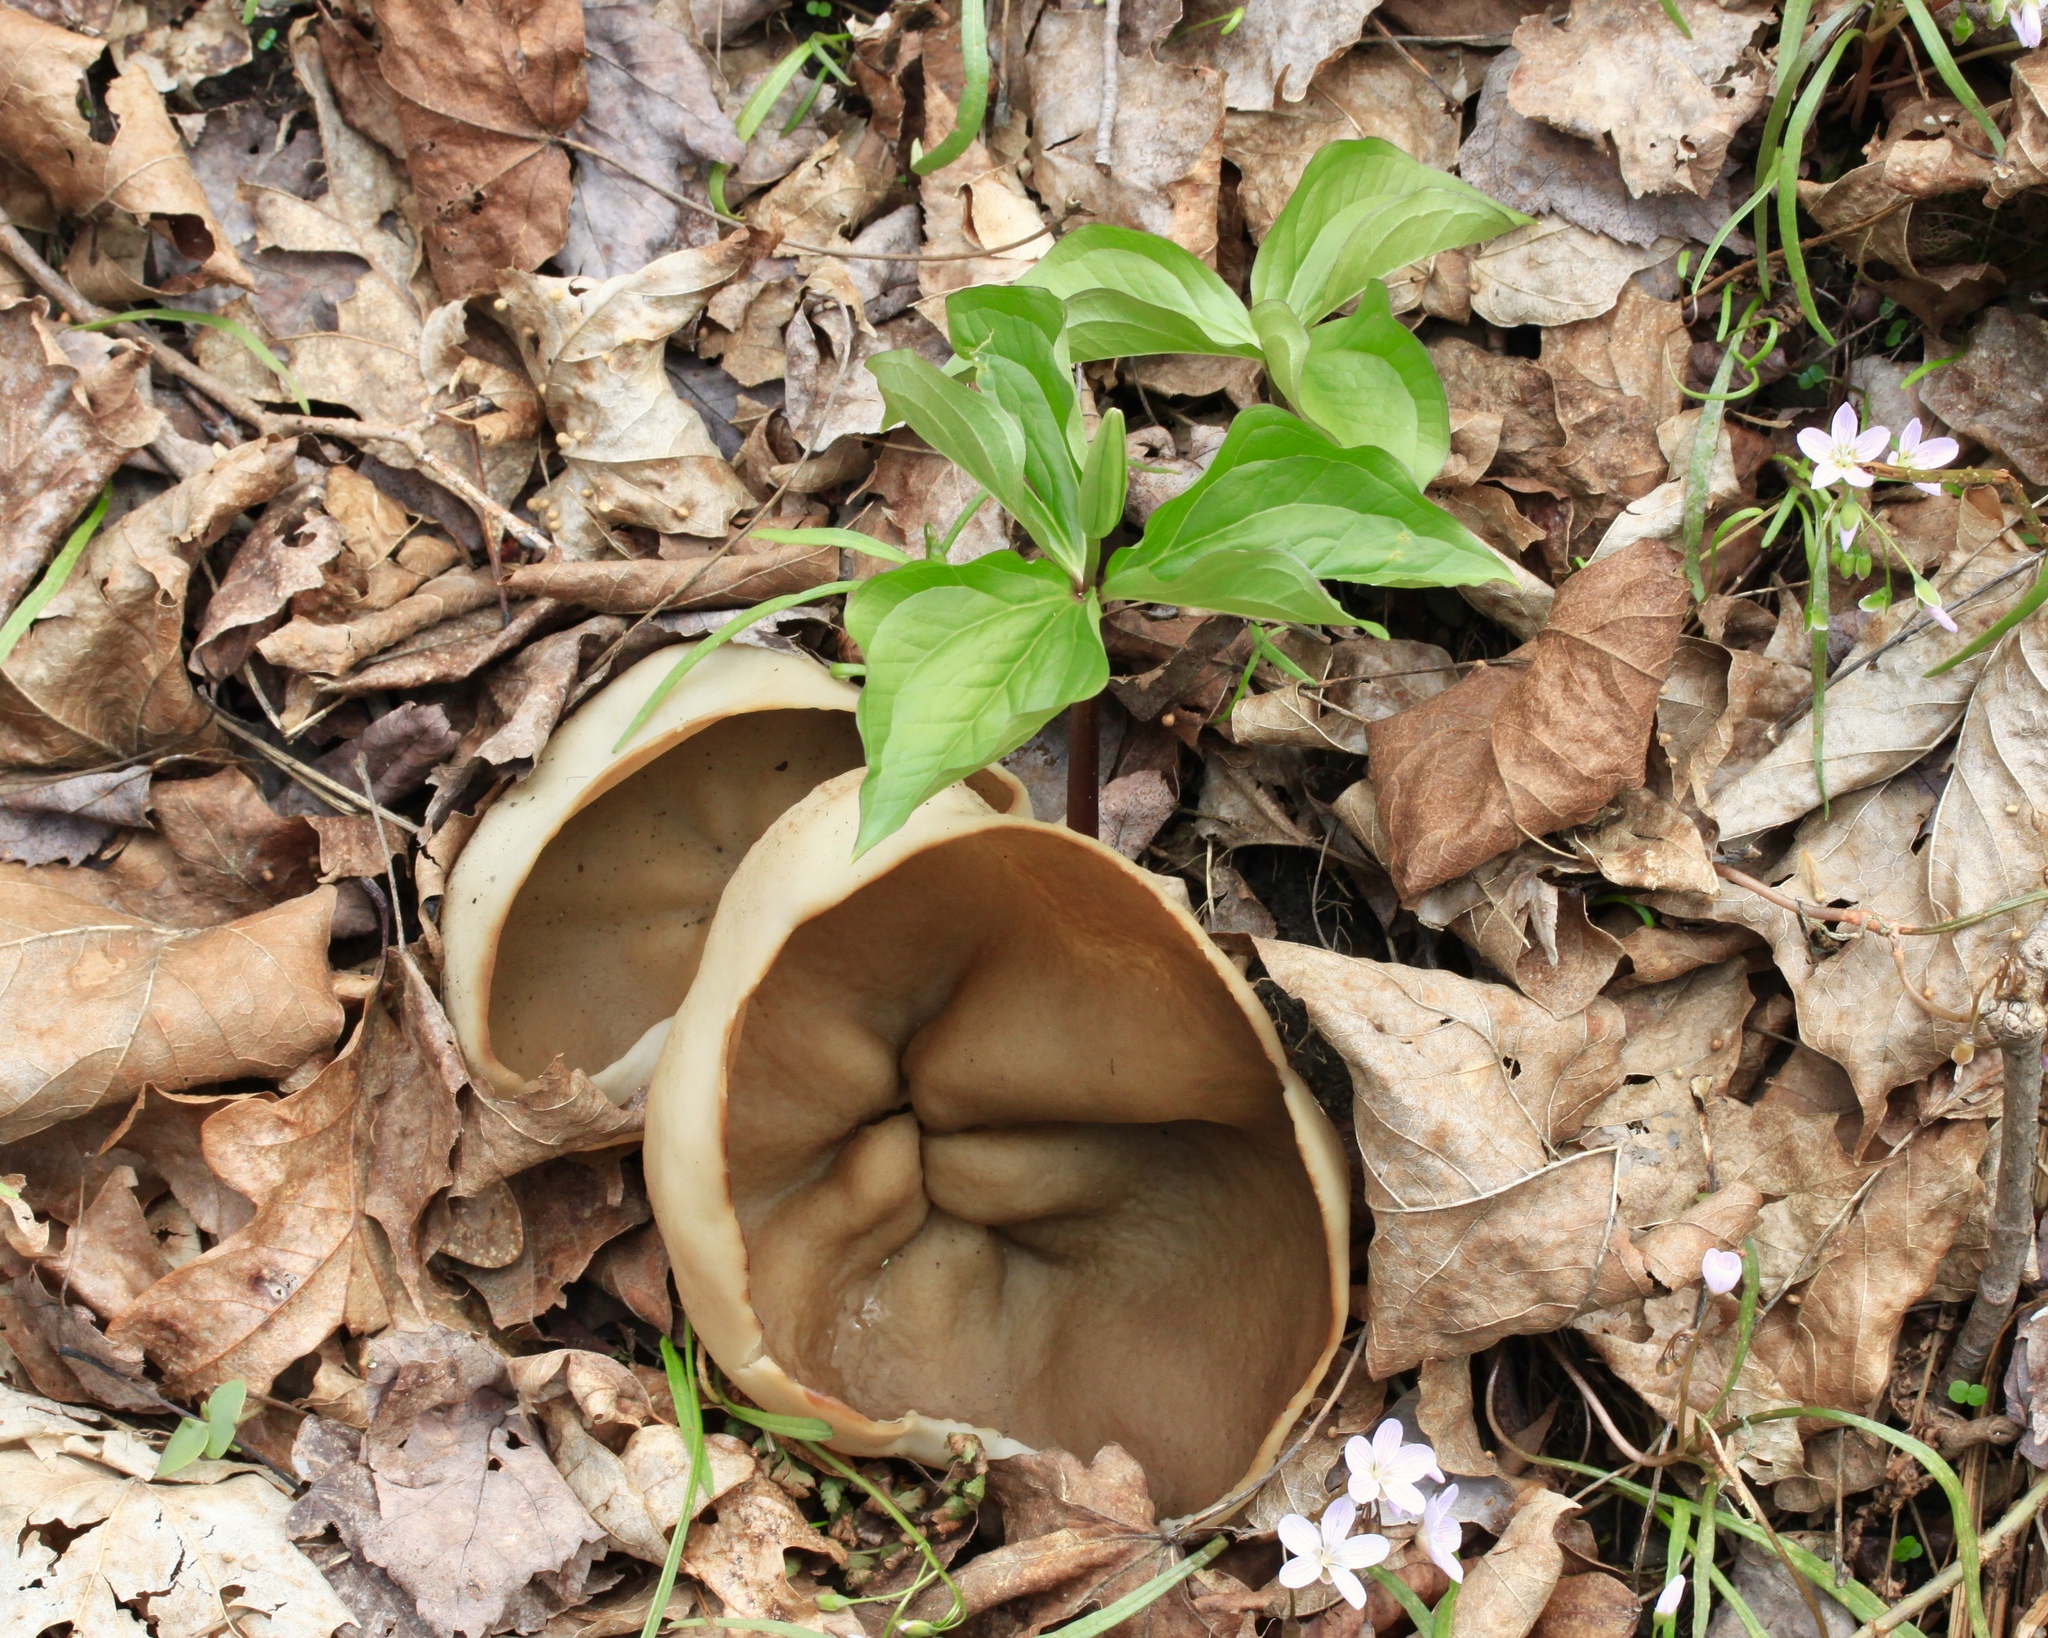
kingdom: Fungi
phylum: Ascomycota
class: Pezizomycetes
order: Pezizales
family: Morchellaceae
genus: Disciotis
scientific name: Disciotis venosa
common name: Bleach cup
